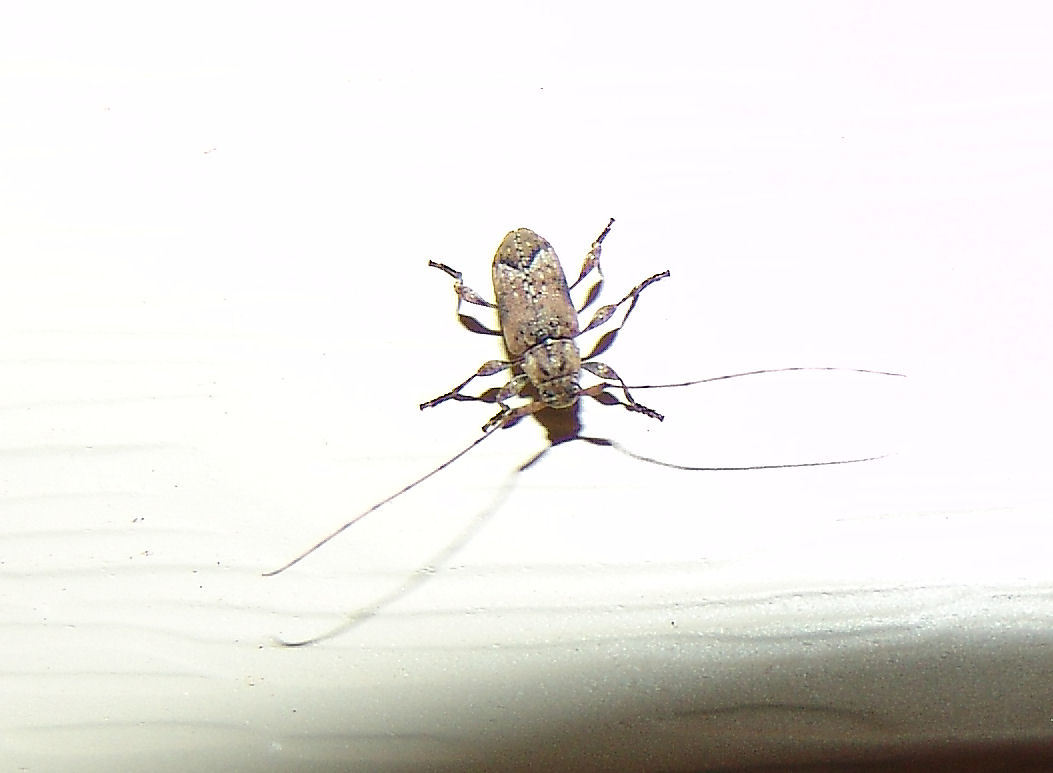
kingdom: Animalia
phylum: Arthropoda
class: Insecta
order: Coleoptera
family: Cerambycidae
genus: Sternidius
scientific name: Sternidius alpha
